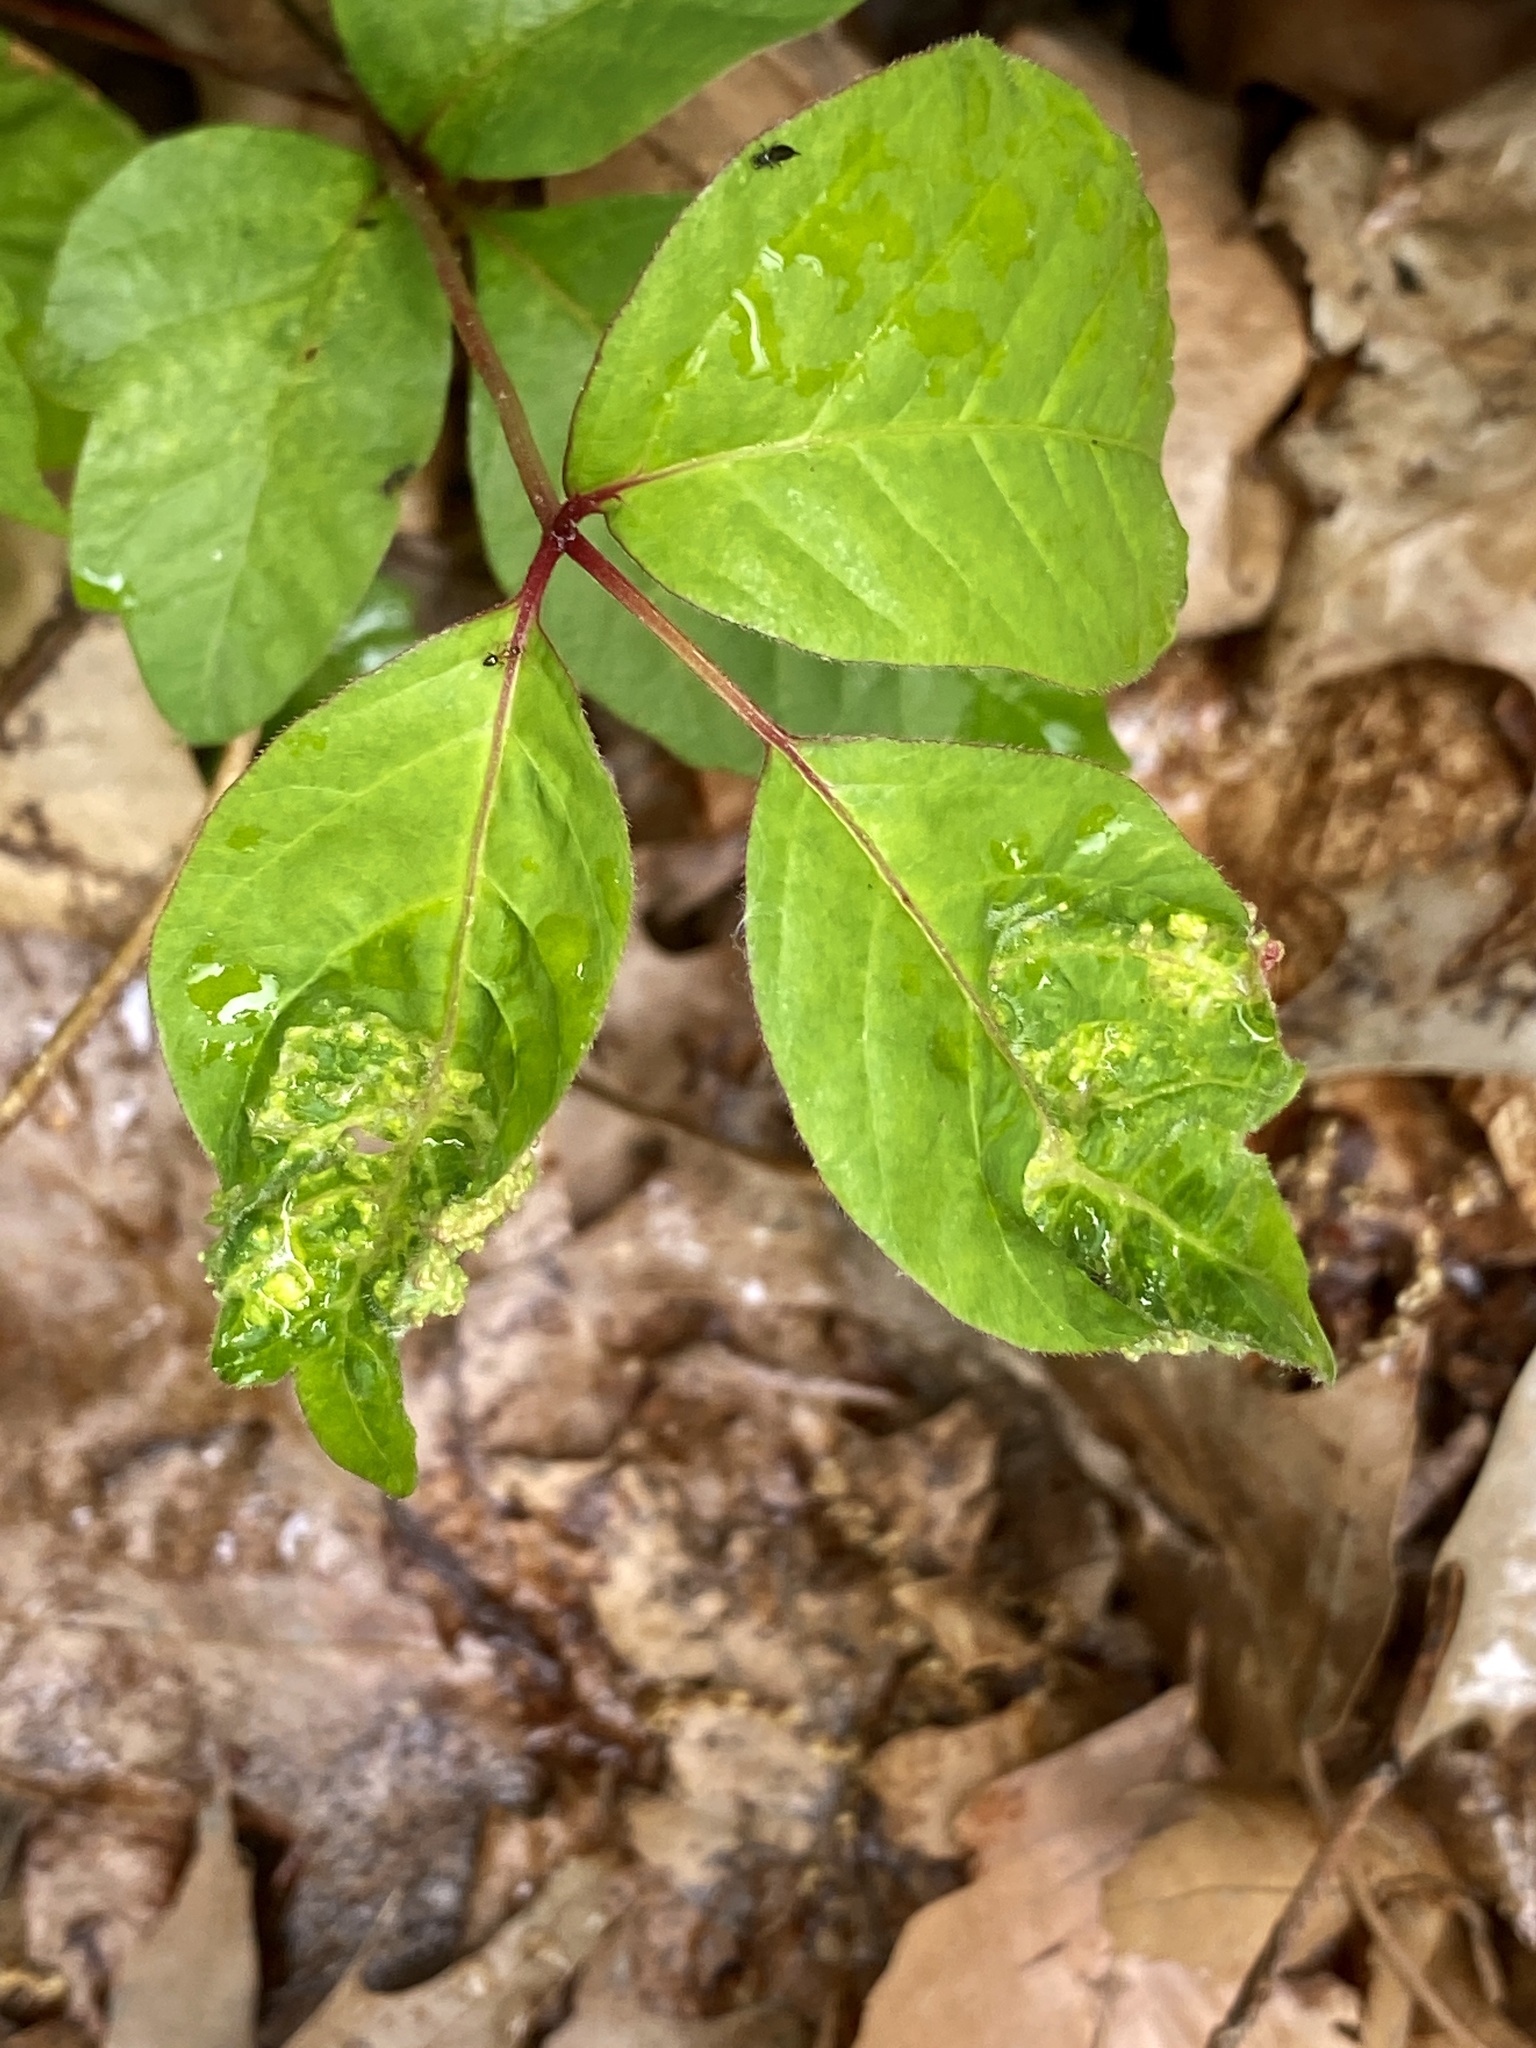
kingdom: Animalia
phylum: Arthropoda
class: Arachnida
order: Trombidiformes
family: Eriophyidae
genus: Aculops
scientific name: Aculops
